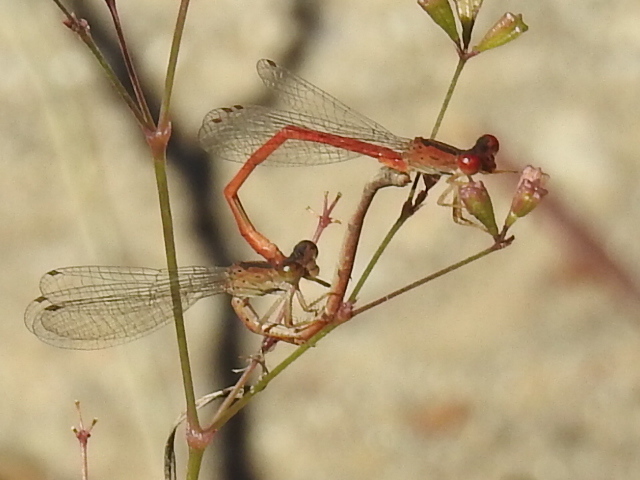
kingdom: Animalia
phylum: Arthropoda
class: Insecta
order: Odonata
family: Coenagrionidae
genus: Telebasis
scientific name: Telebasis salva
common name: Desert firetail
